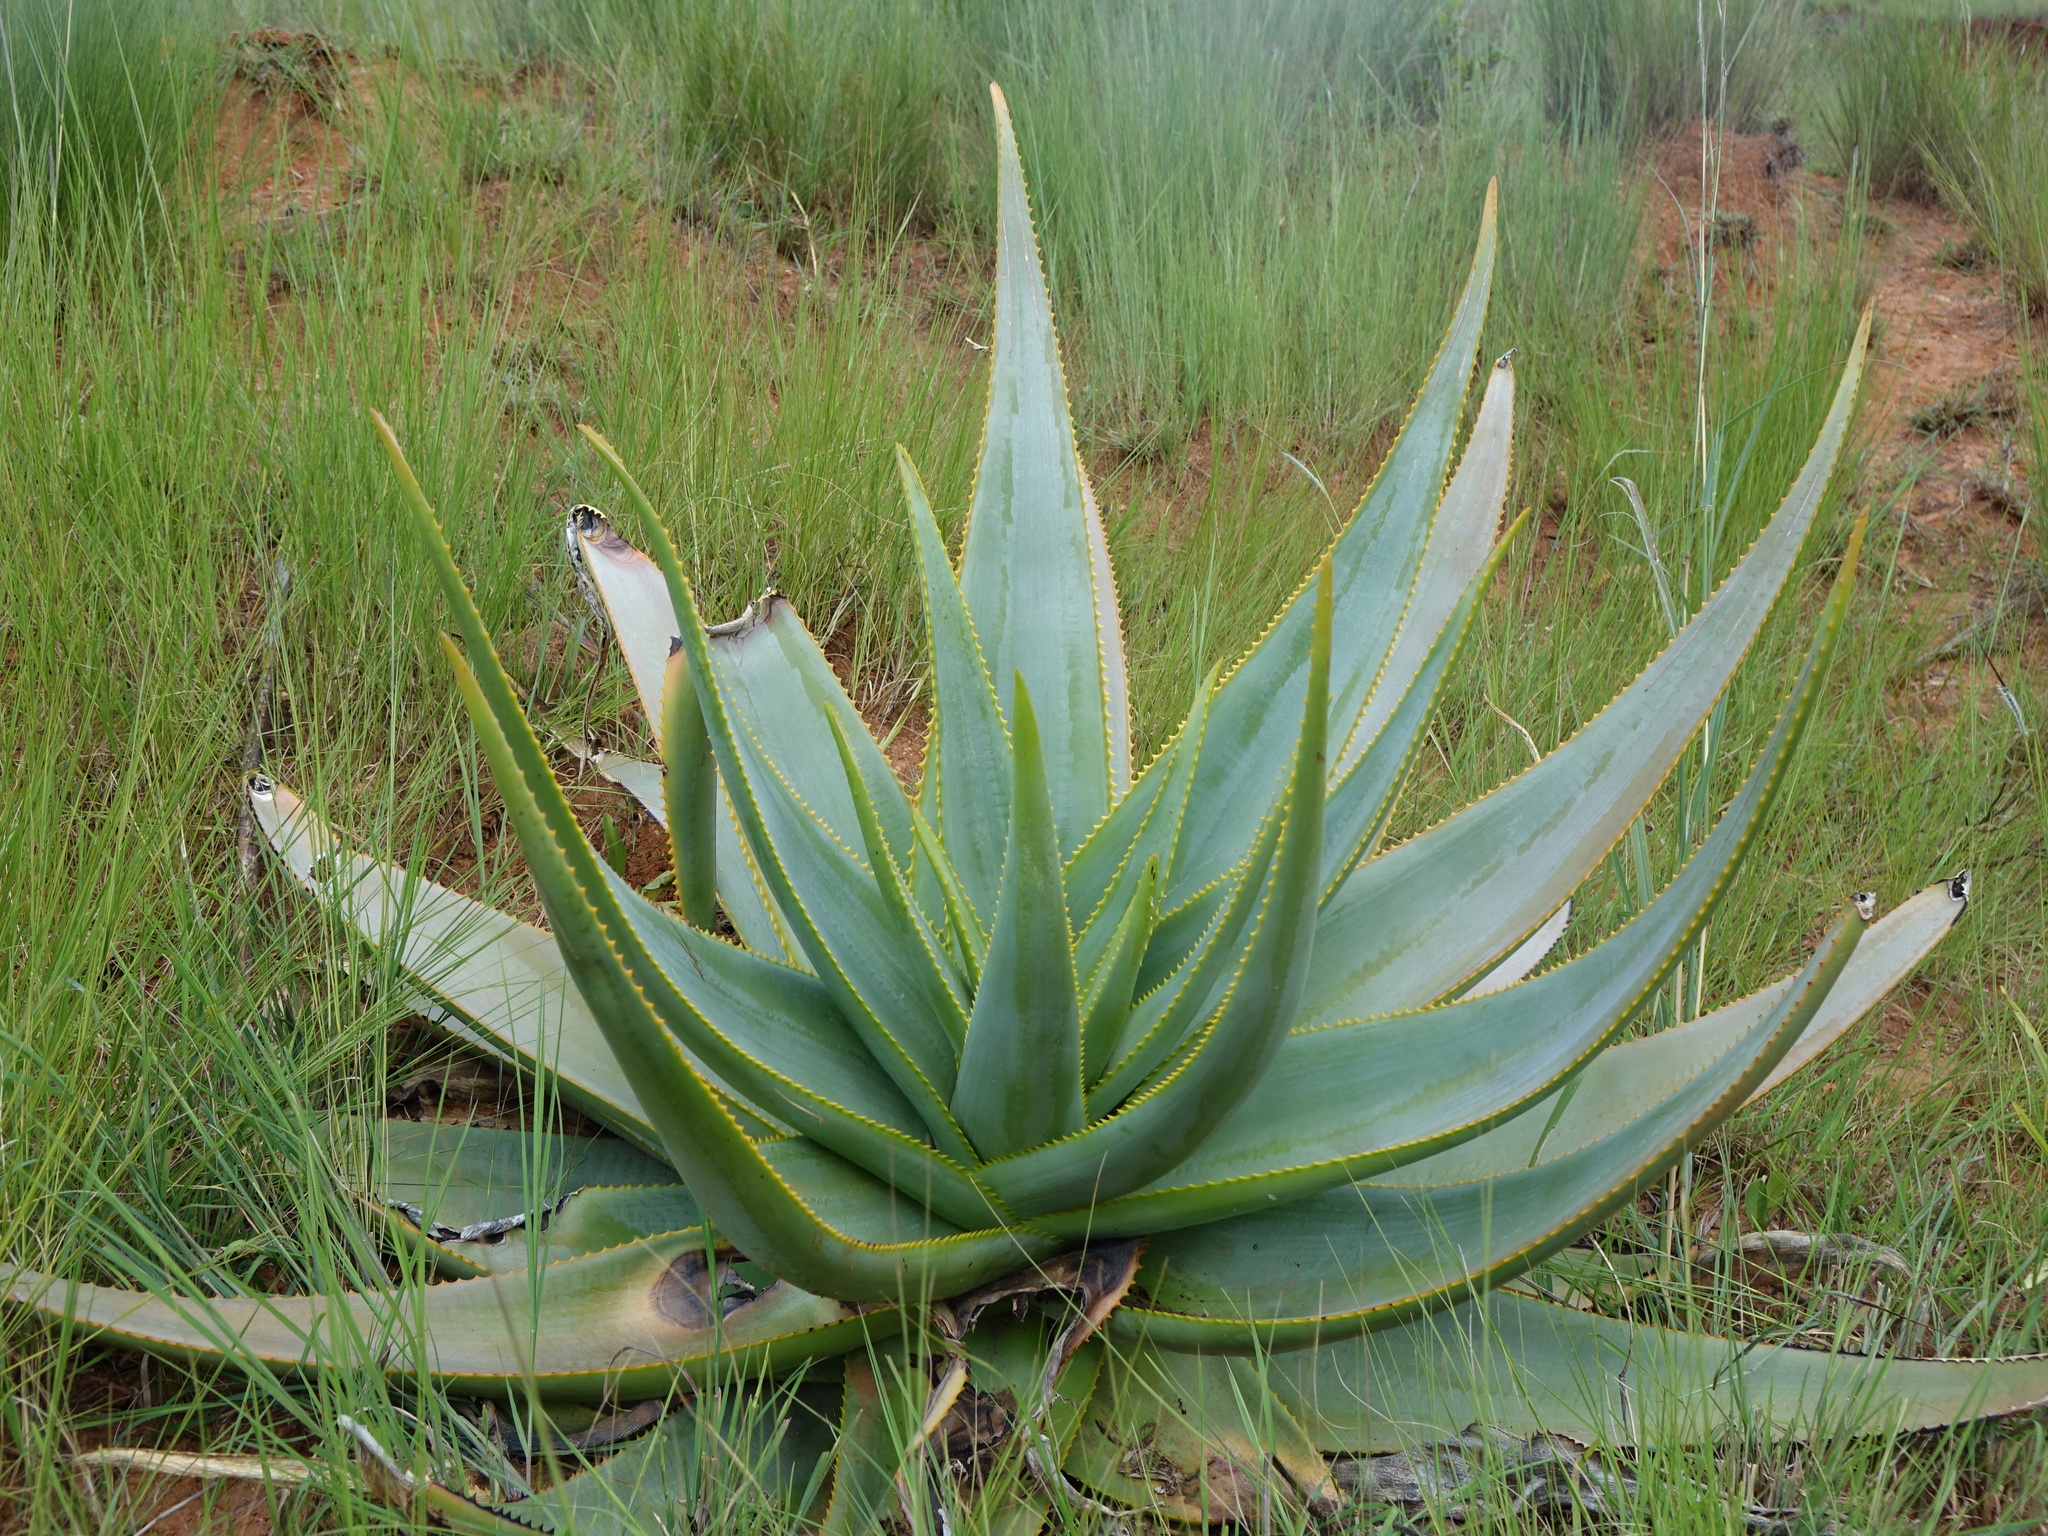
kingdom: Plantae
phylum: Tracheophyta
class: Liliopsida
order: Asparagales
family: Asphodelaceae
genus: Aloe
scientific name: Aloe macroclada
